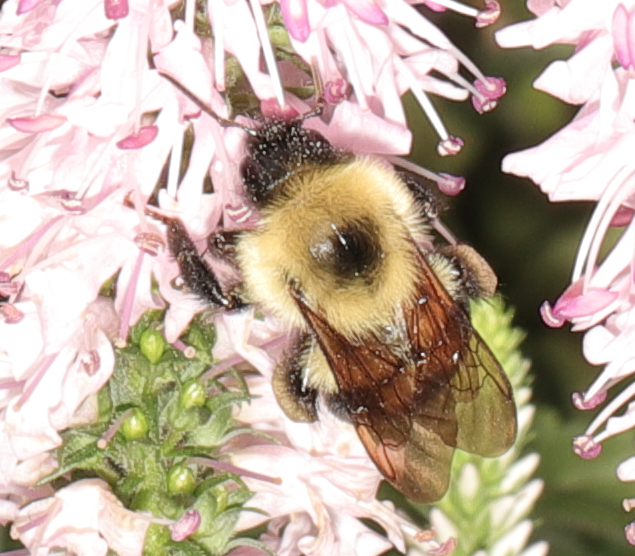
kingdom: Animalia
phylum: Arthropoda
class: Insecta
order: Hymenoptera
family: Apidae
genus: Bombus
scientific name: Bombus bimaculatus
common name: Two-spotted bumble bee
